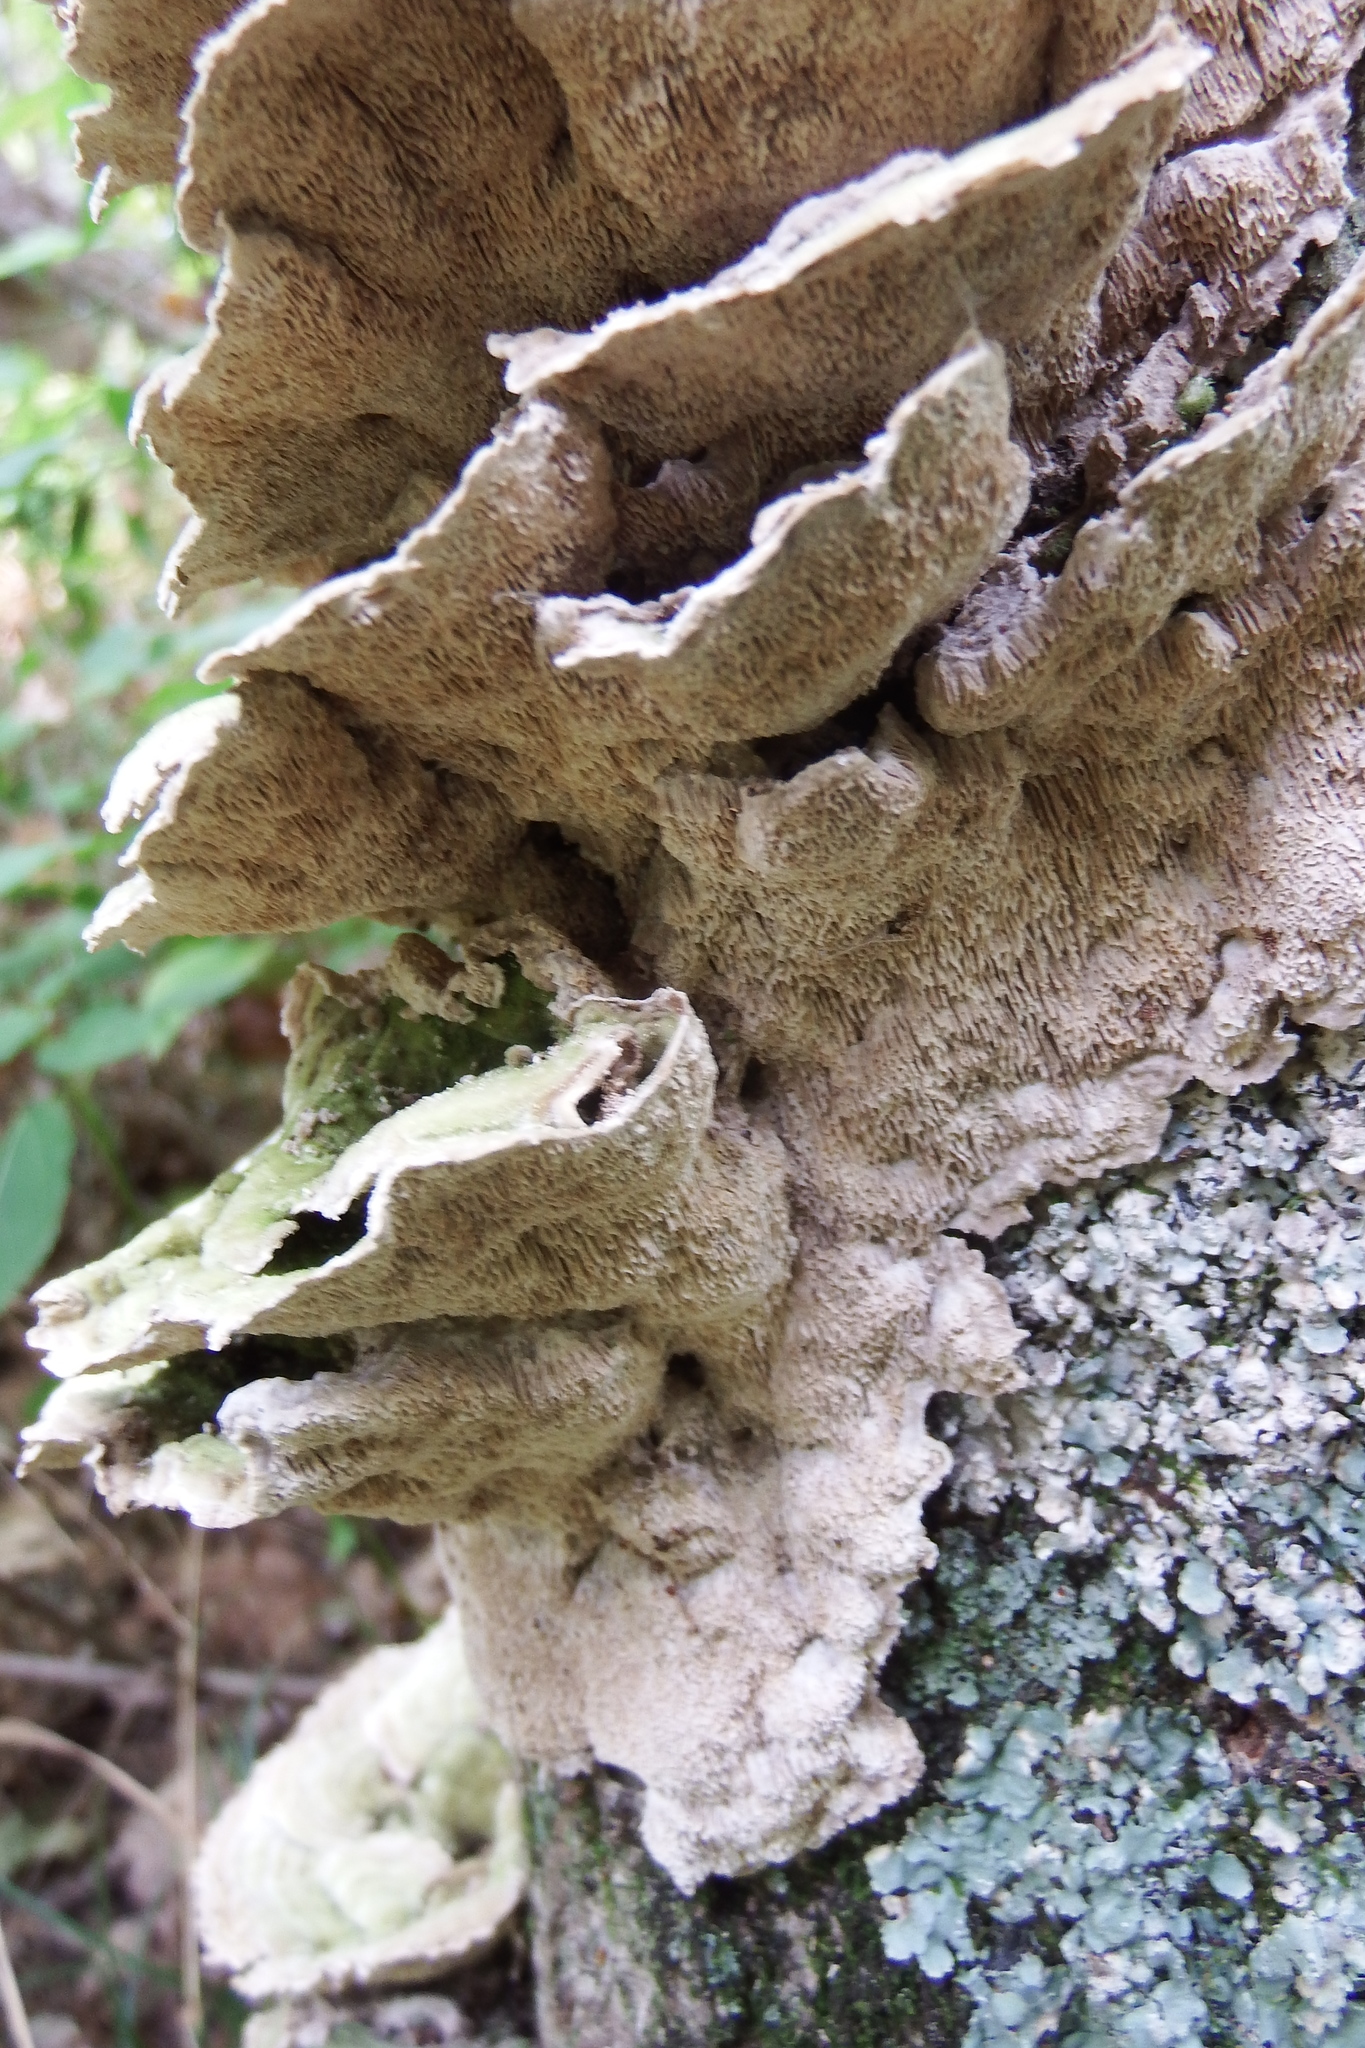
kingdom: Fungi
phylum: Basidiomycota
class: Agaricomycetes
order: Polyporales
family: Cerrenaceae
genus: Cerrena
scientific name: Cerrena unicolor
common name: Mossy maze polypore
